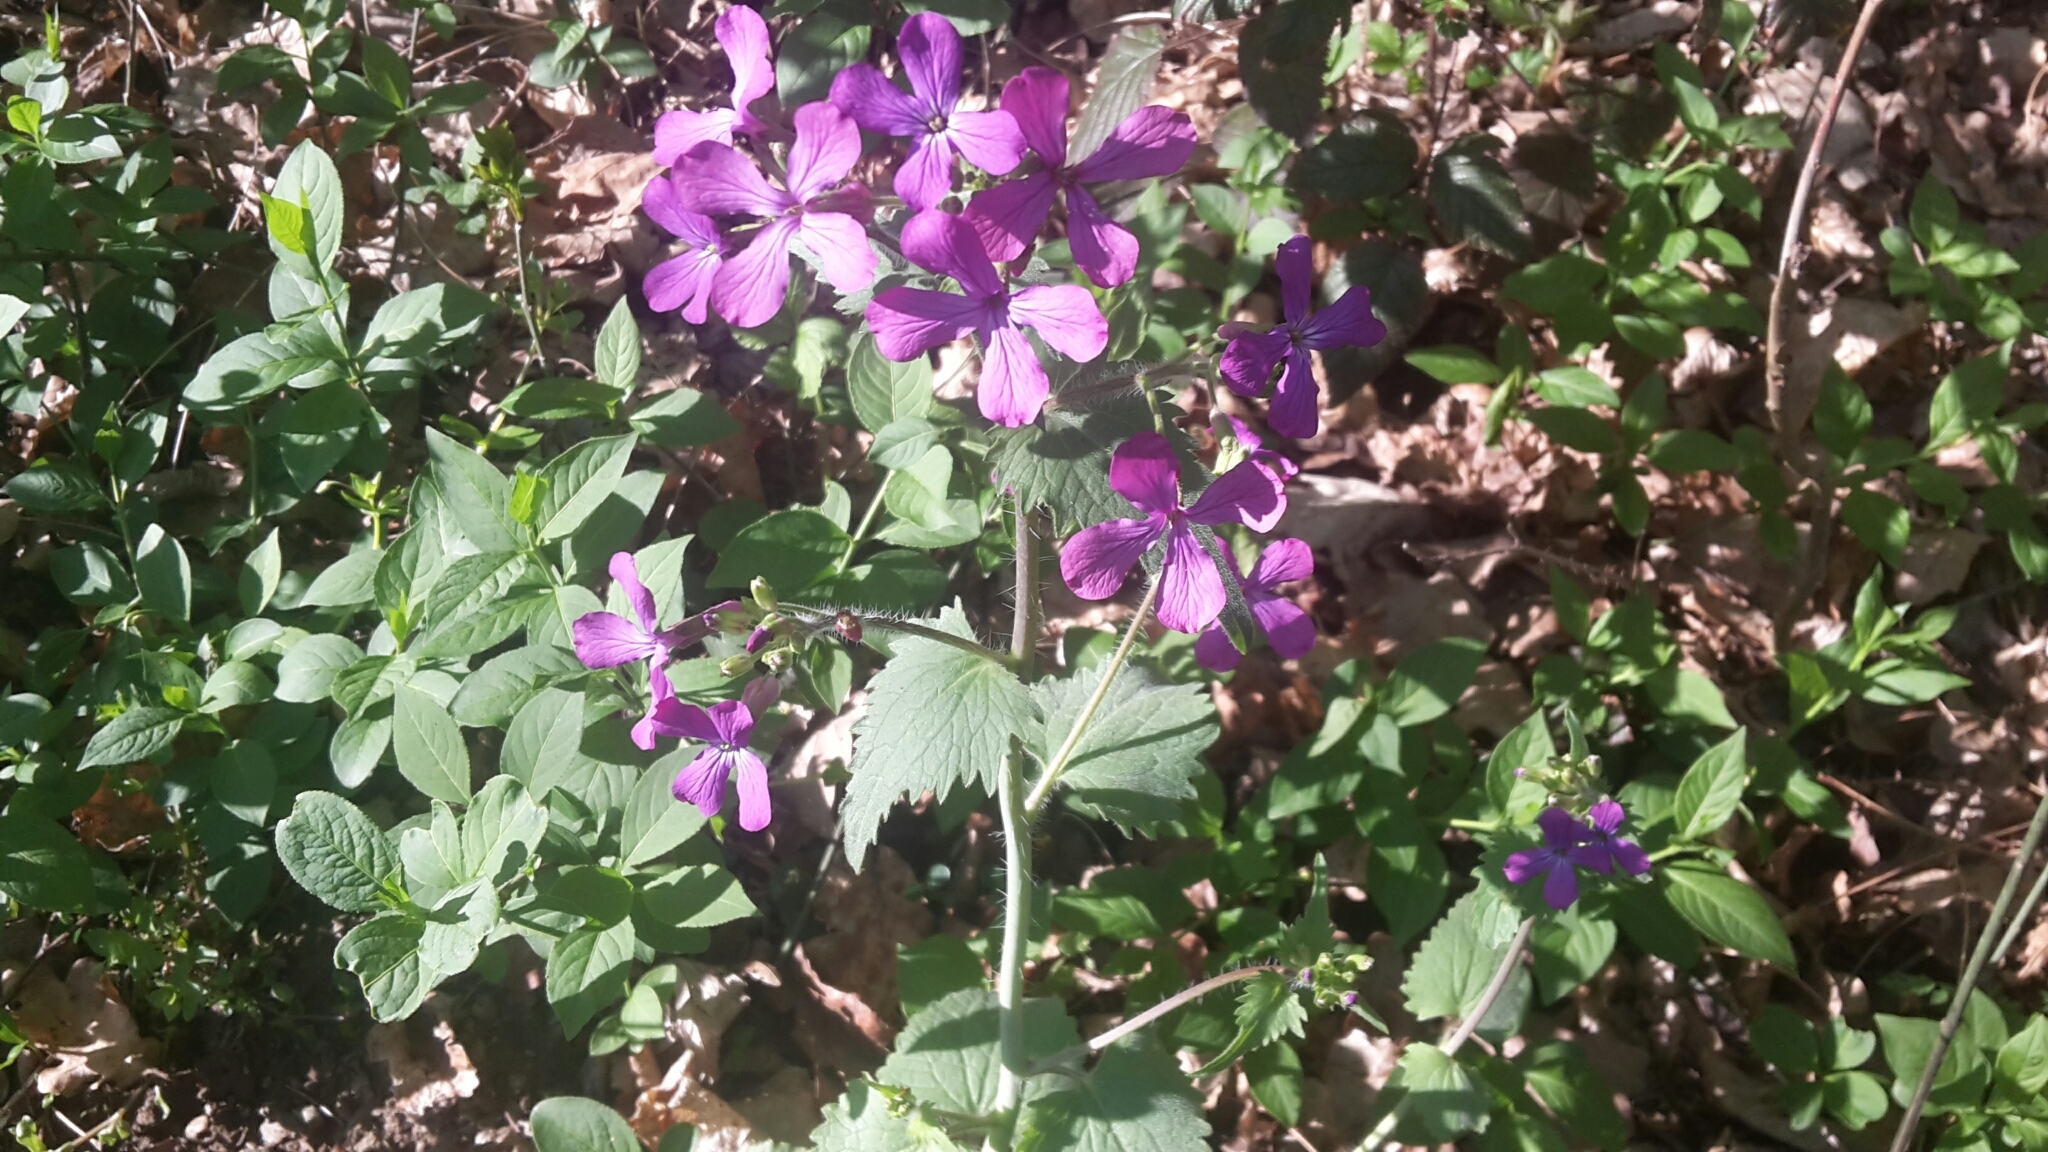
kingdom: Plantae
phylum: Tracheophyta
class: Magnoliopsida
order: Brassicales
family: Brassicaceae
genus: Lunaria
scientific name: Lunaria annua
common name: Honesty
